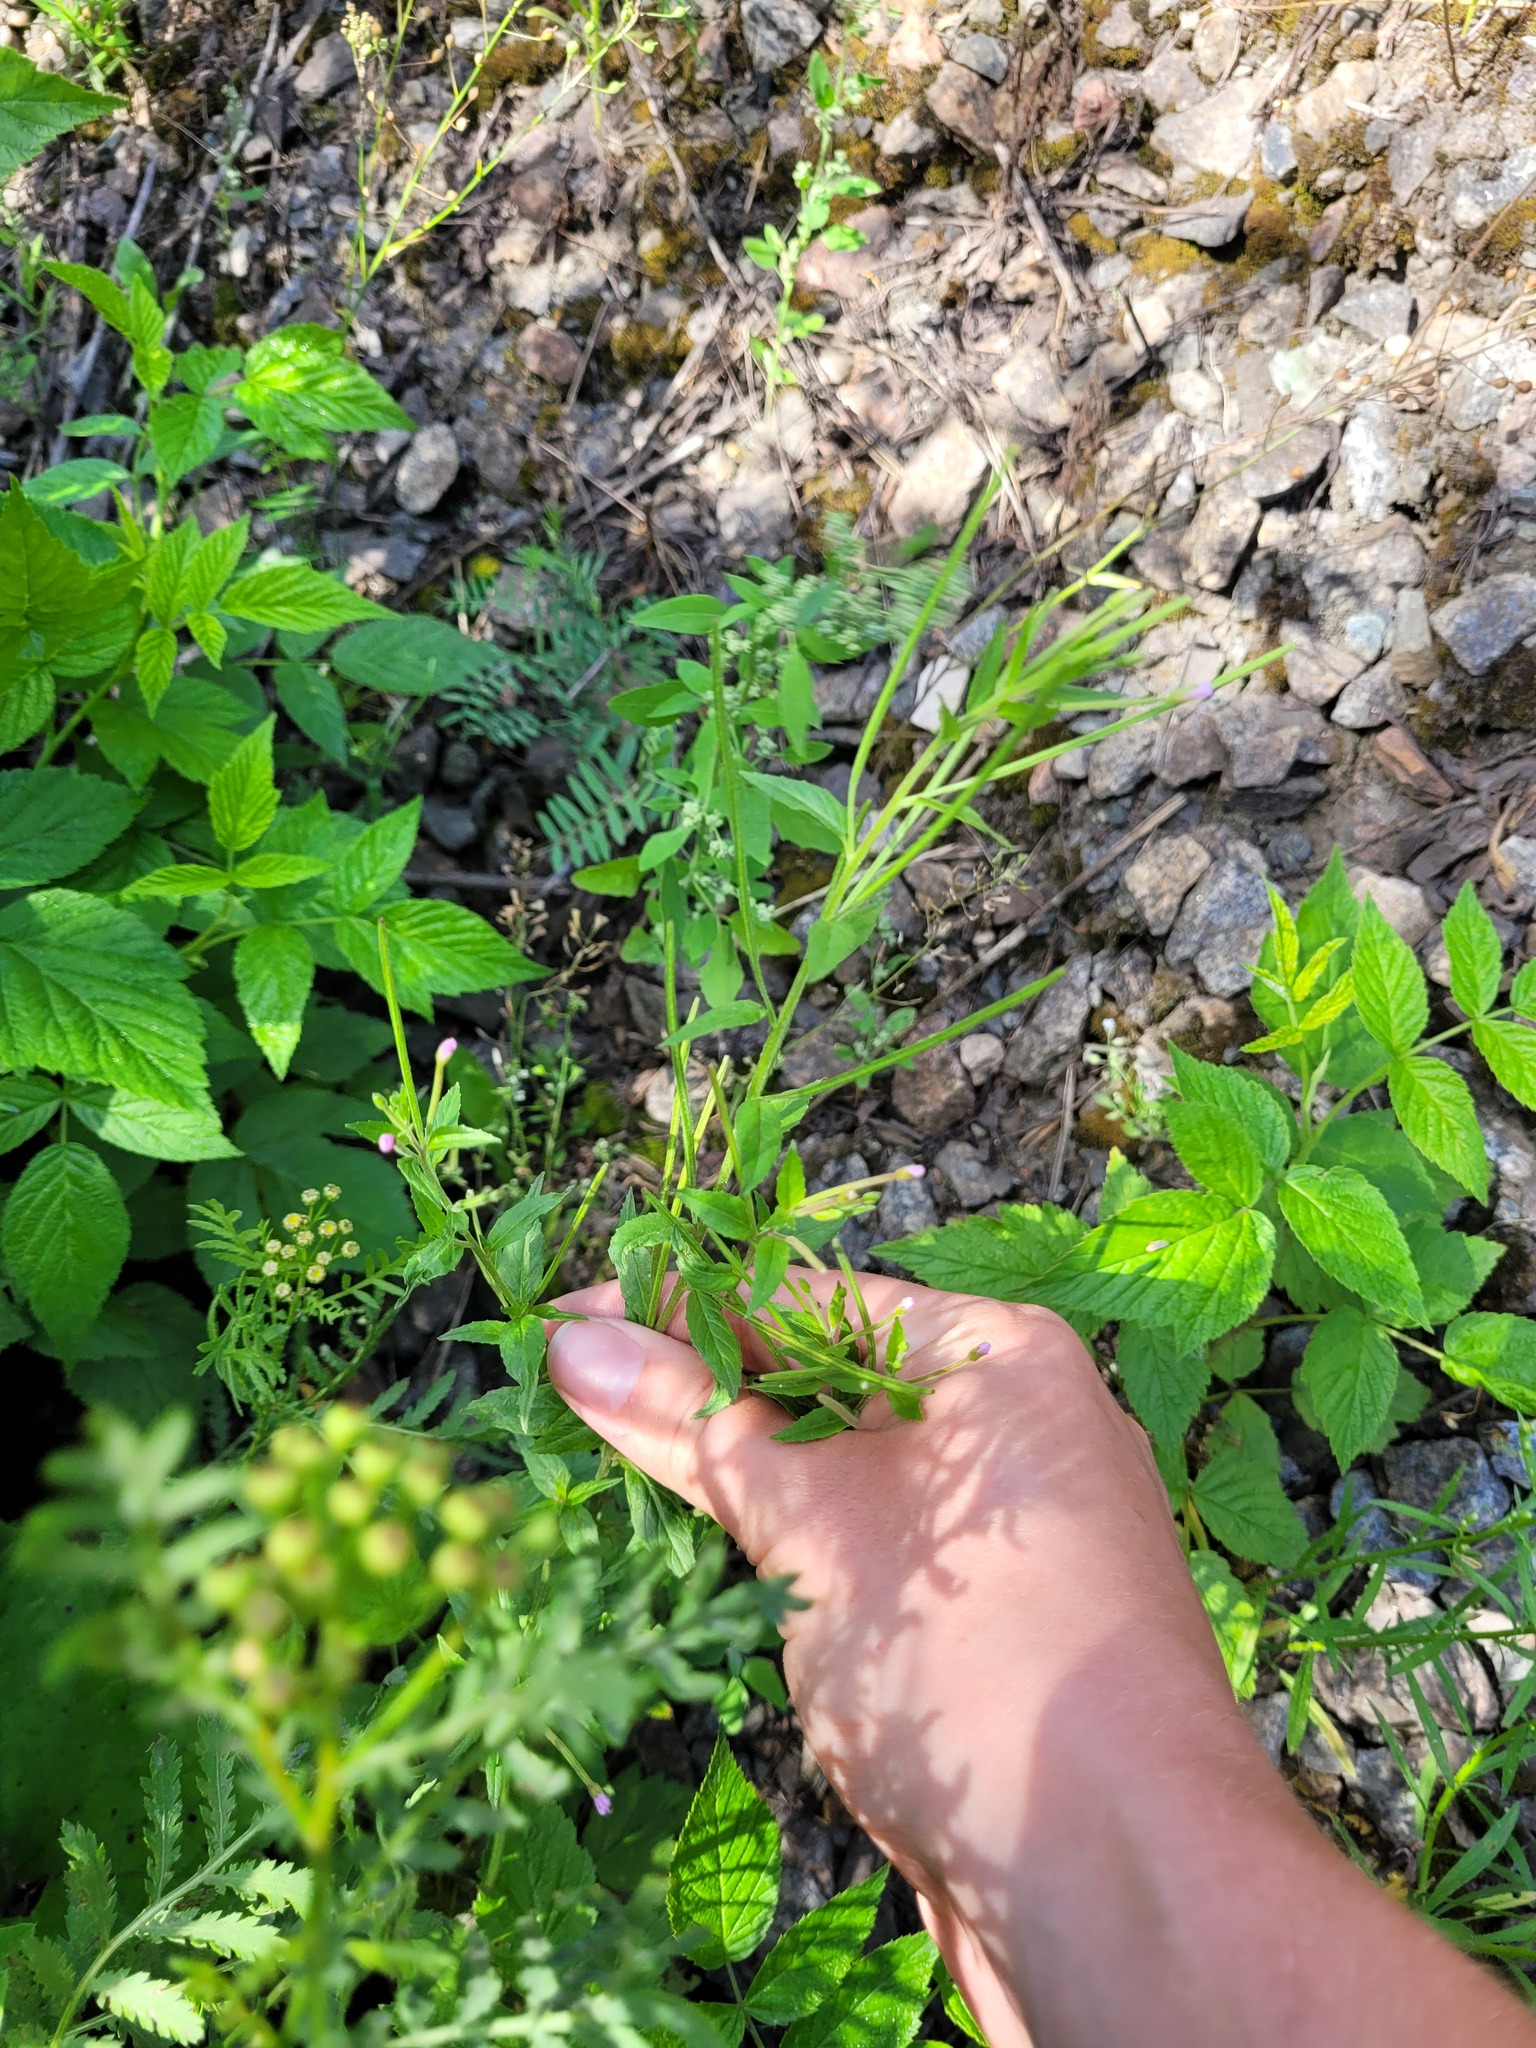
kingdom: Plantae
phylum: Tracheophyta
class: Magnoliopsida
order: Myrtales
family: Onagraceae
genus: Epilobium
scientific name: Epilobium ciliatum
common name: American willowherb
